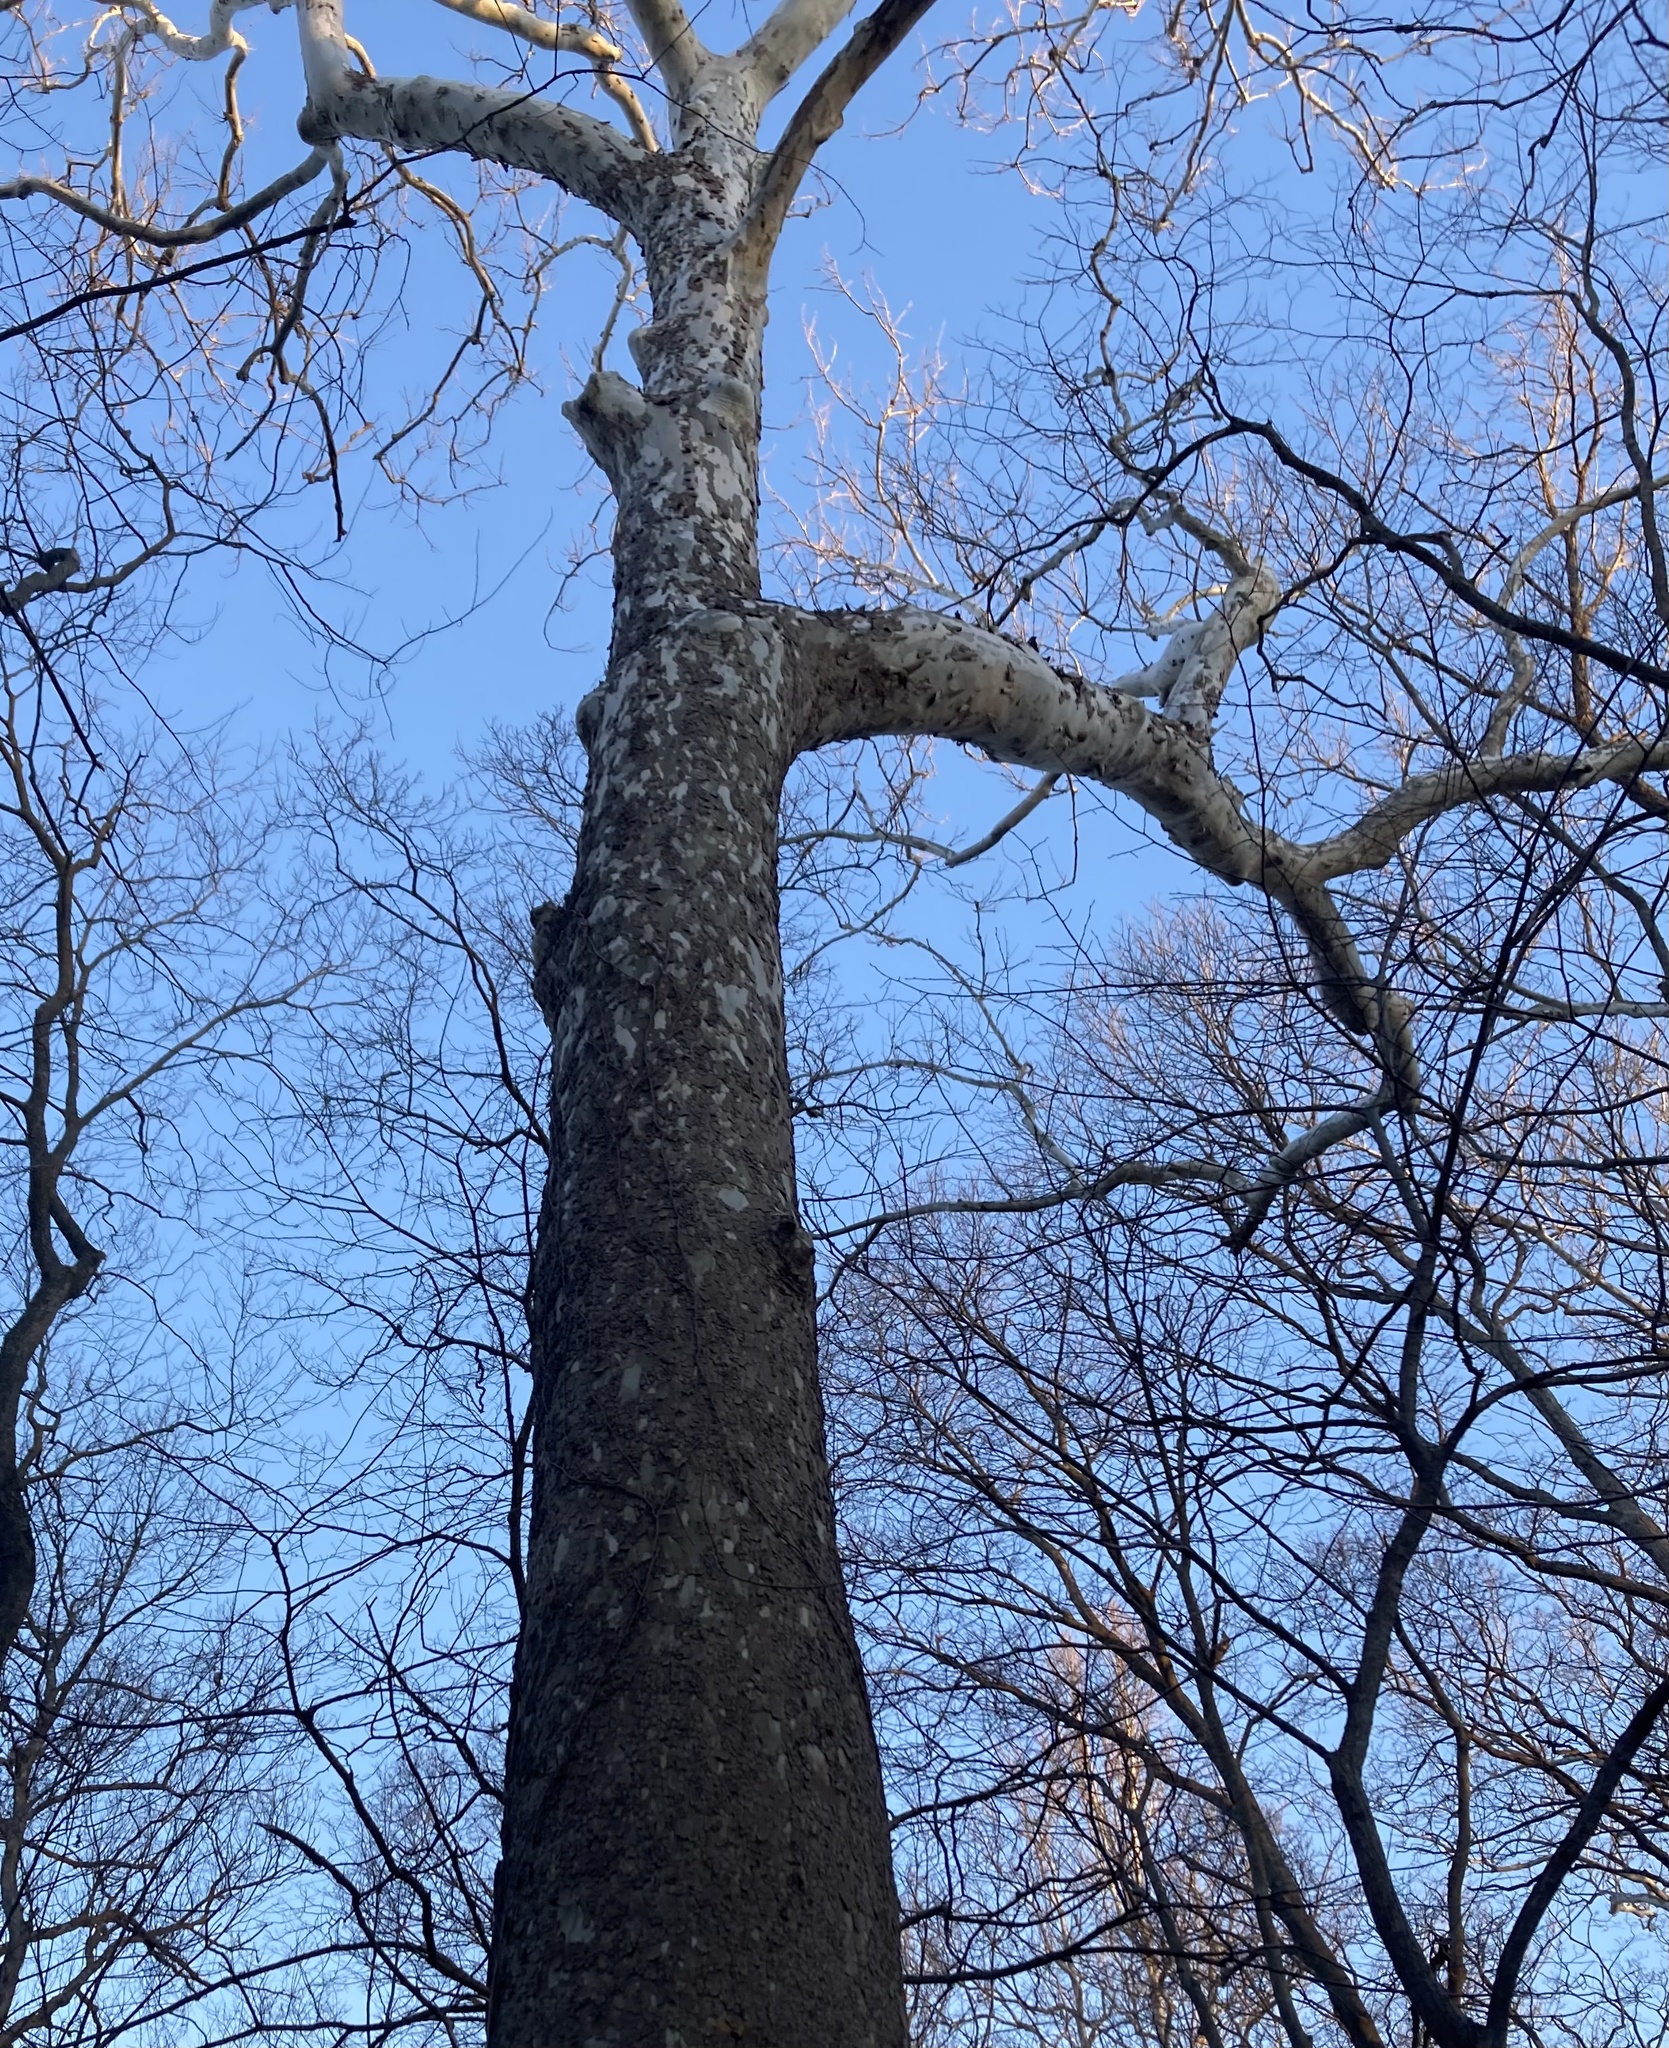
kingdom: Plantae
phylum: Tracheophyta
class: Magnoliopsida
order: Proteales
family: Platanaceae
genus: Platanus
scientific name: Platanus occidentalis
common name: American sycamore
